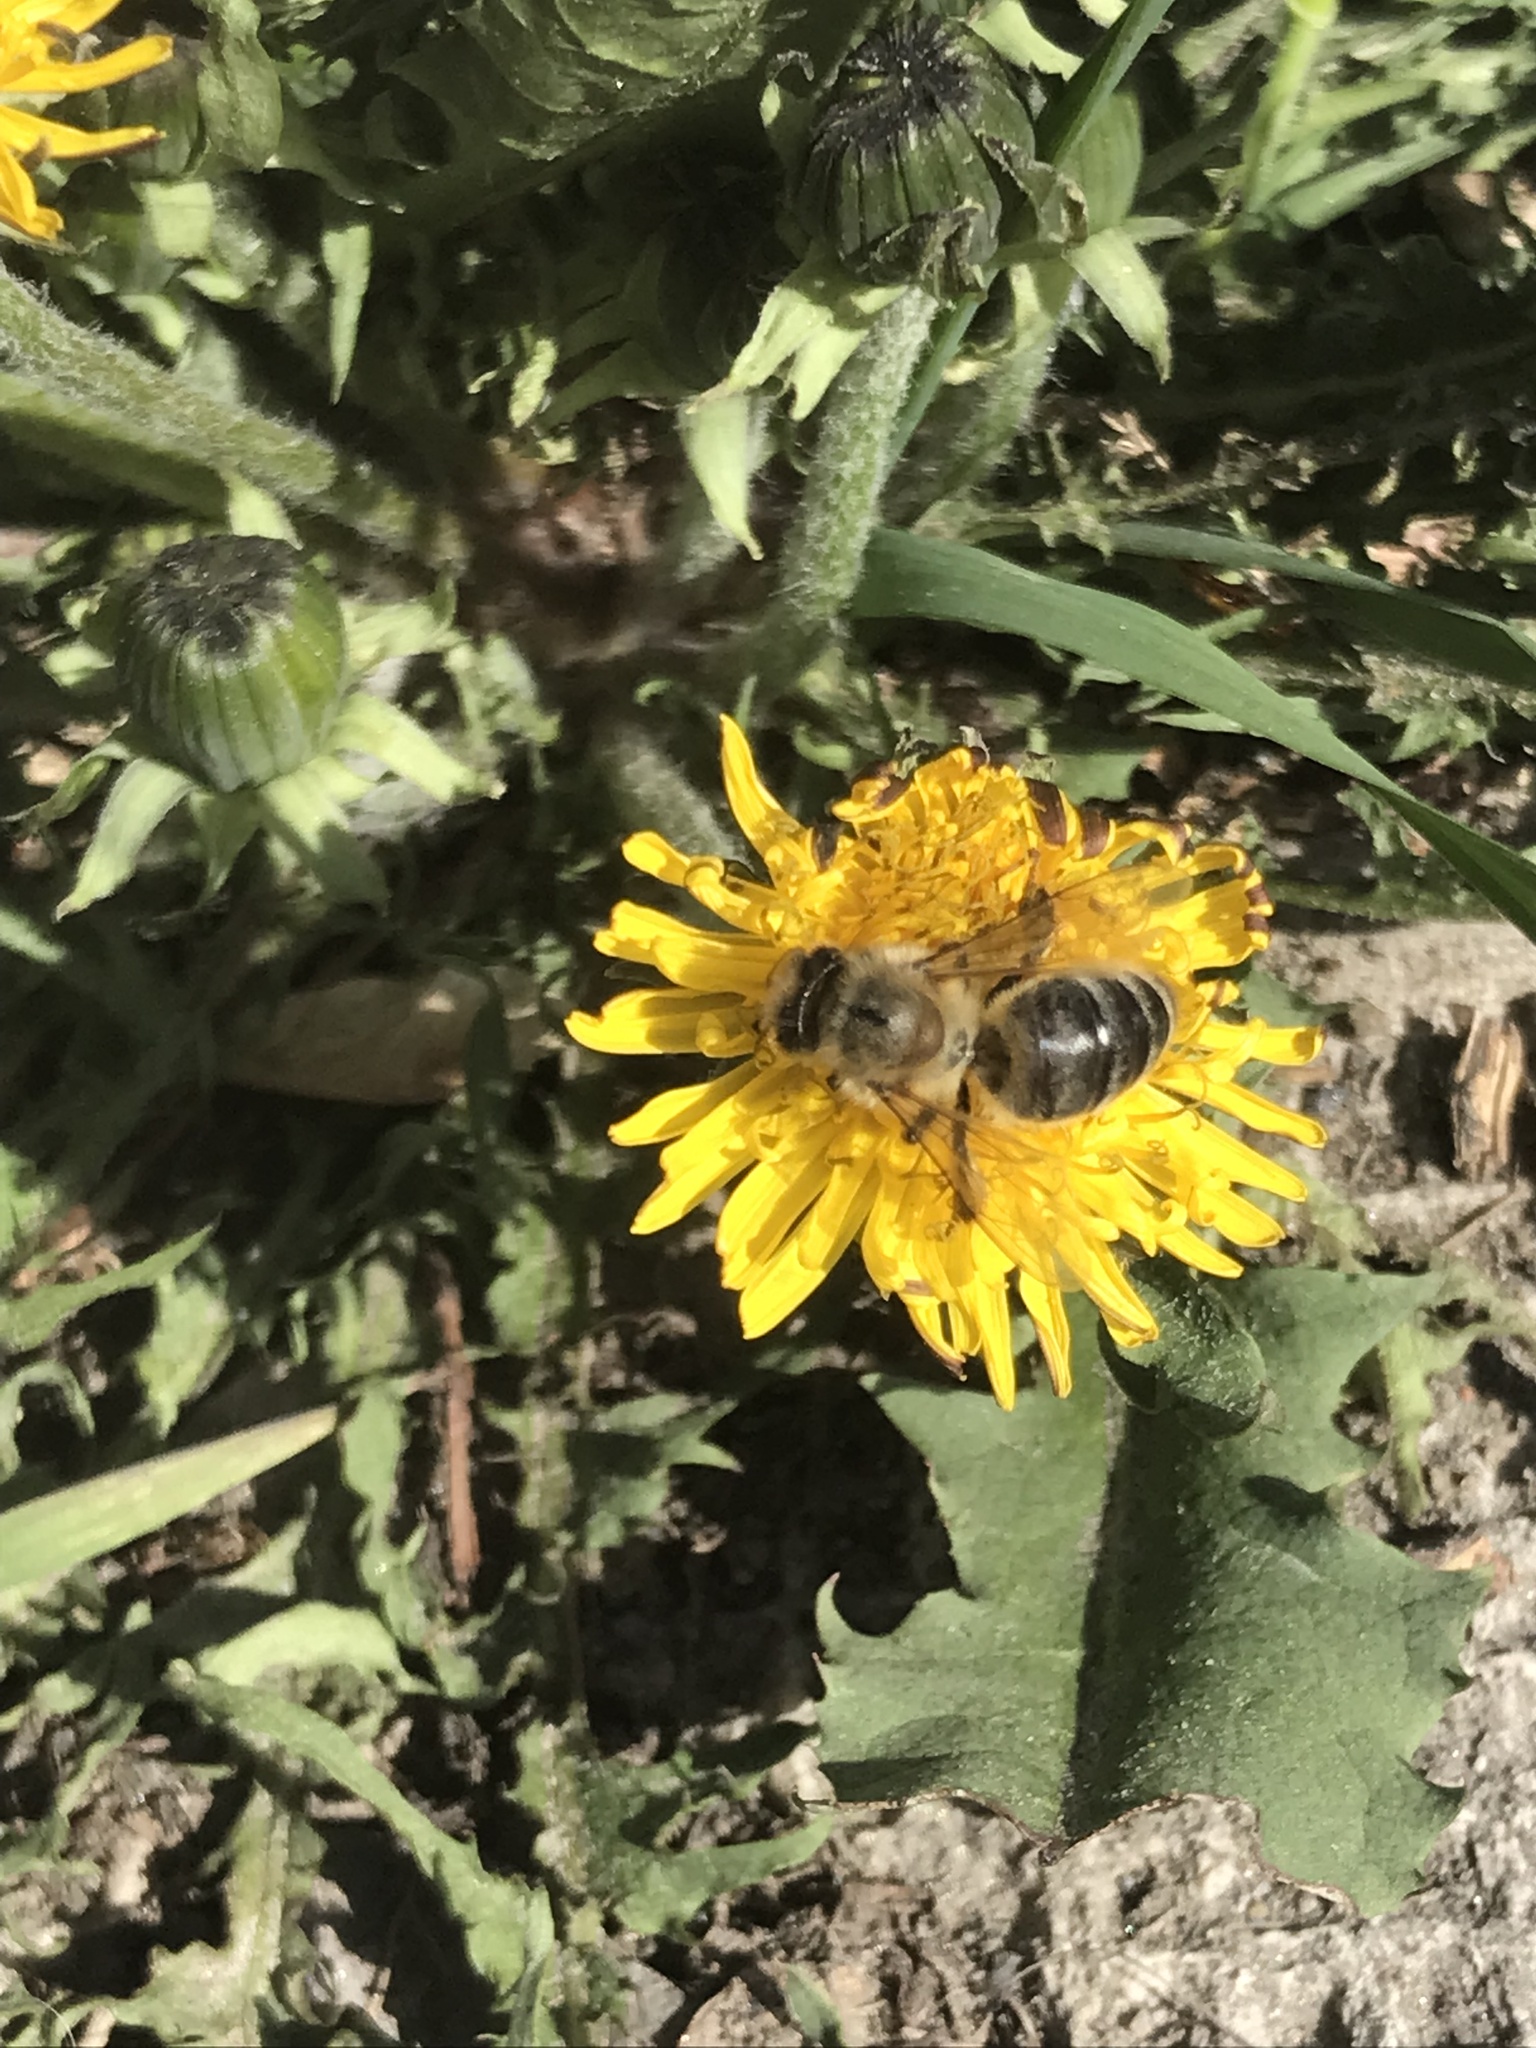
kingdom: Animalia
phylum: Arthropoda
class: Insecta
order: Hymenoptera
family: Apidae
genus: Apis
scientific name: Apis mellifera
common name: Honey bee
